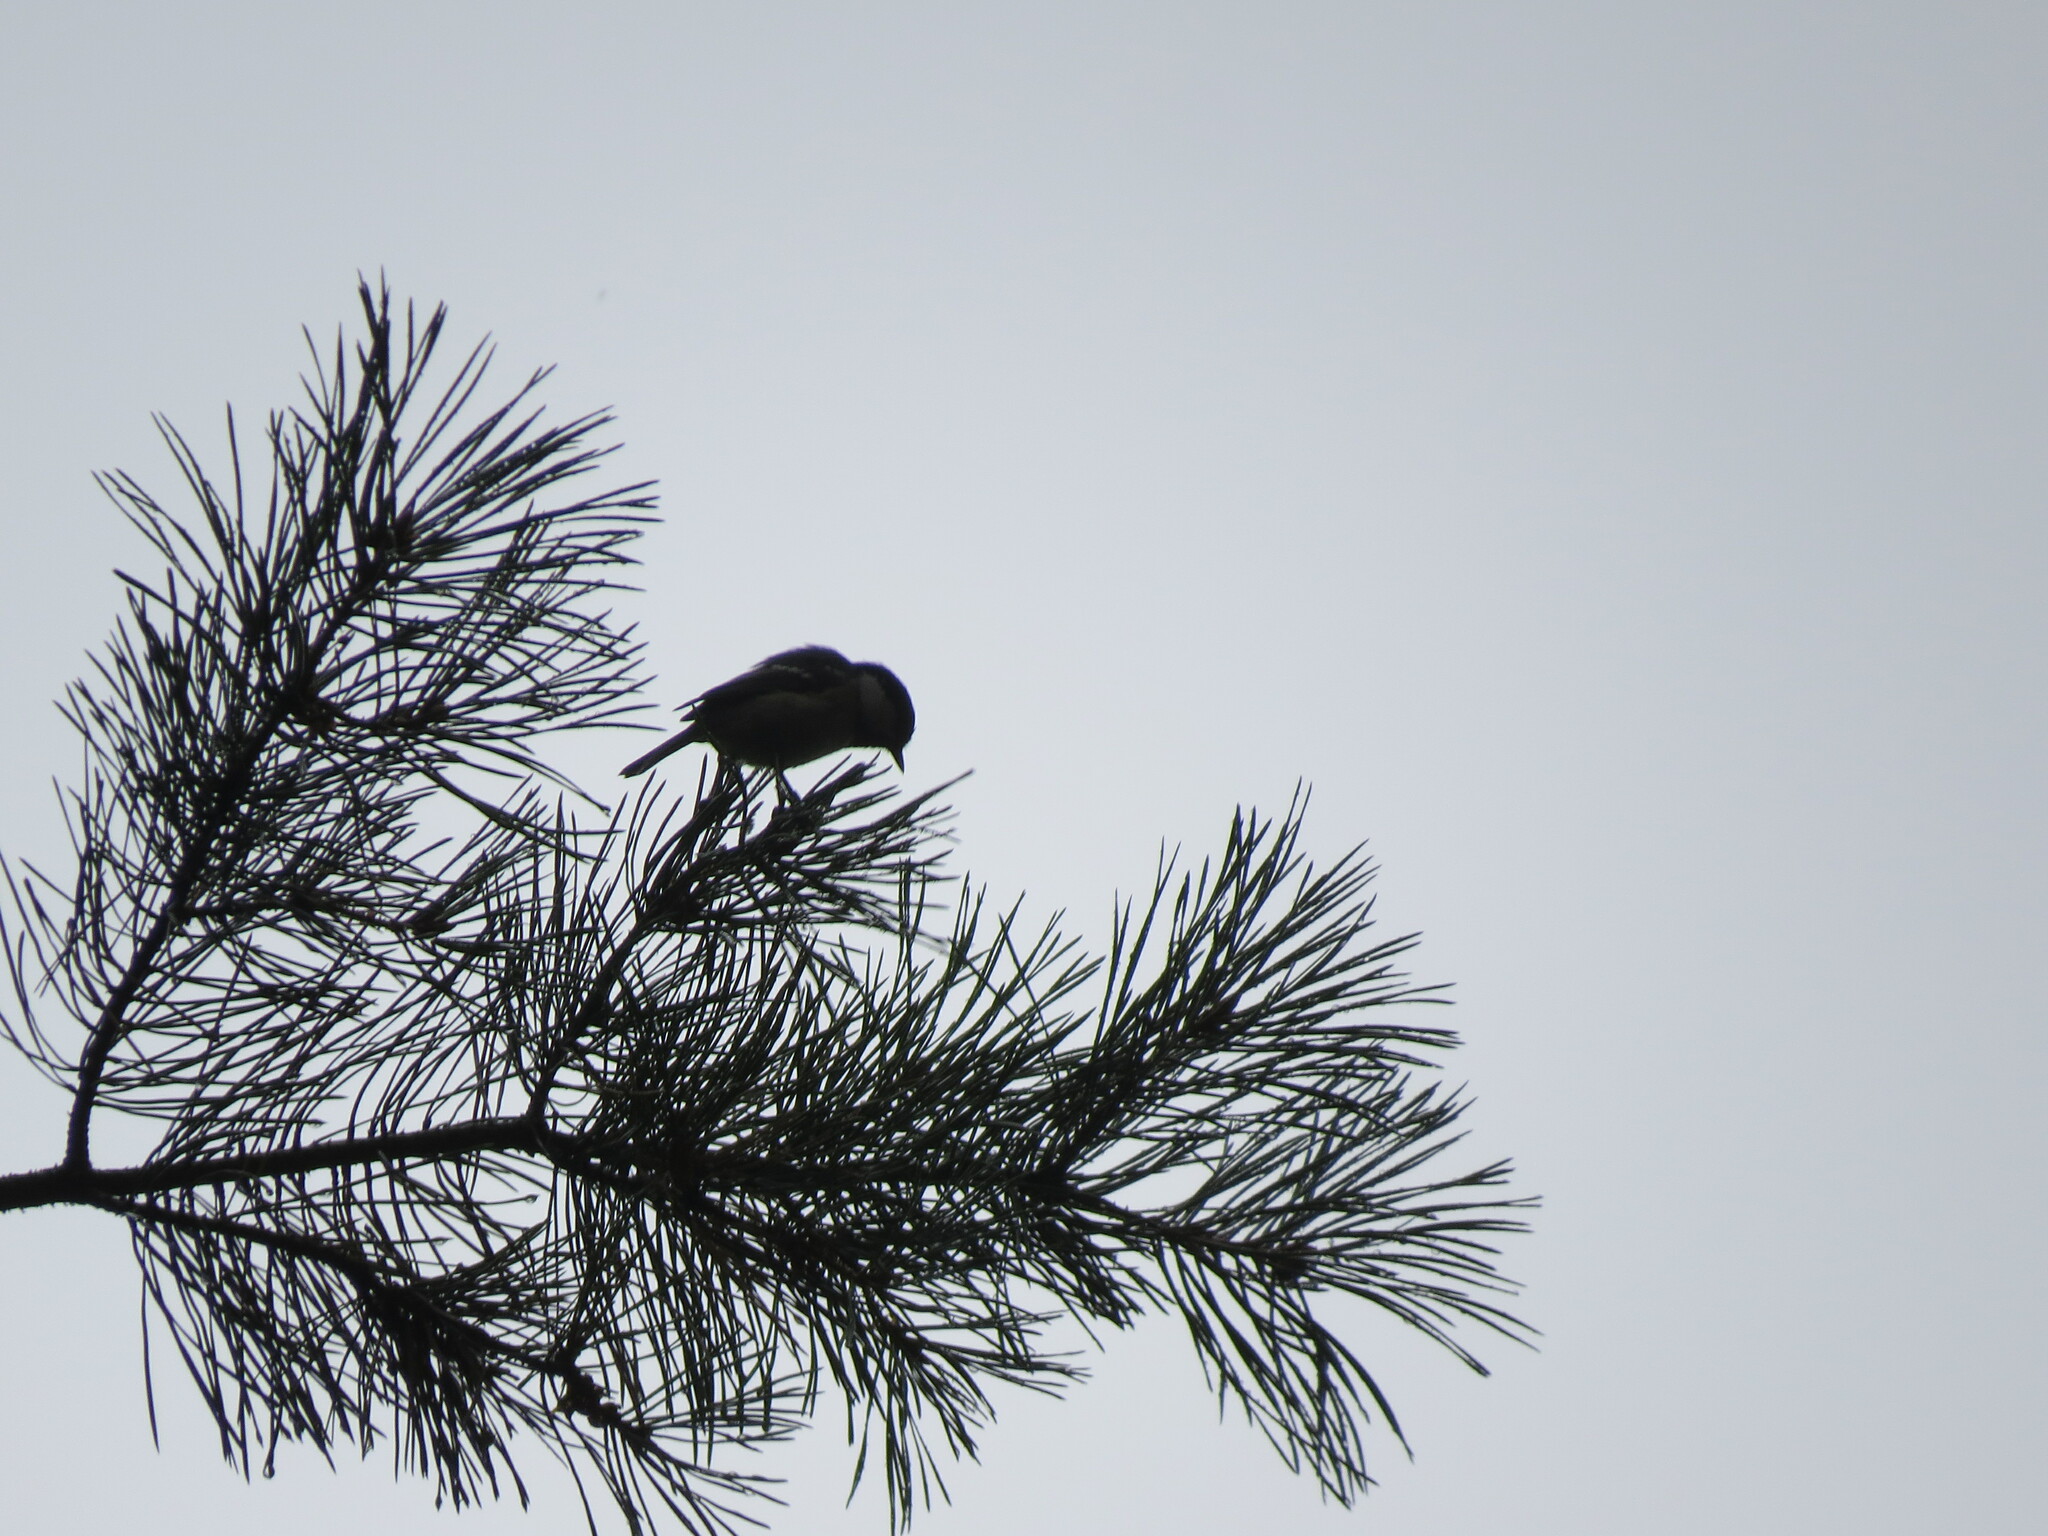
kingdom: Animalia
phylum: Chordata
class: Aves
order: Passeriformes
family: Paridae
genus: Periparus
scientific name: Periparus ater
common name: Coal tit
